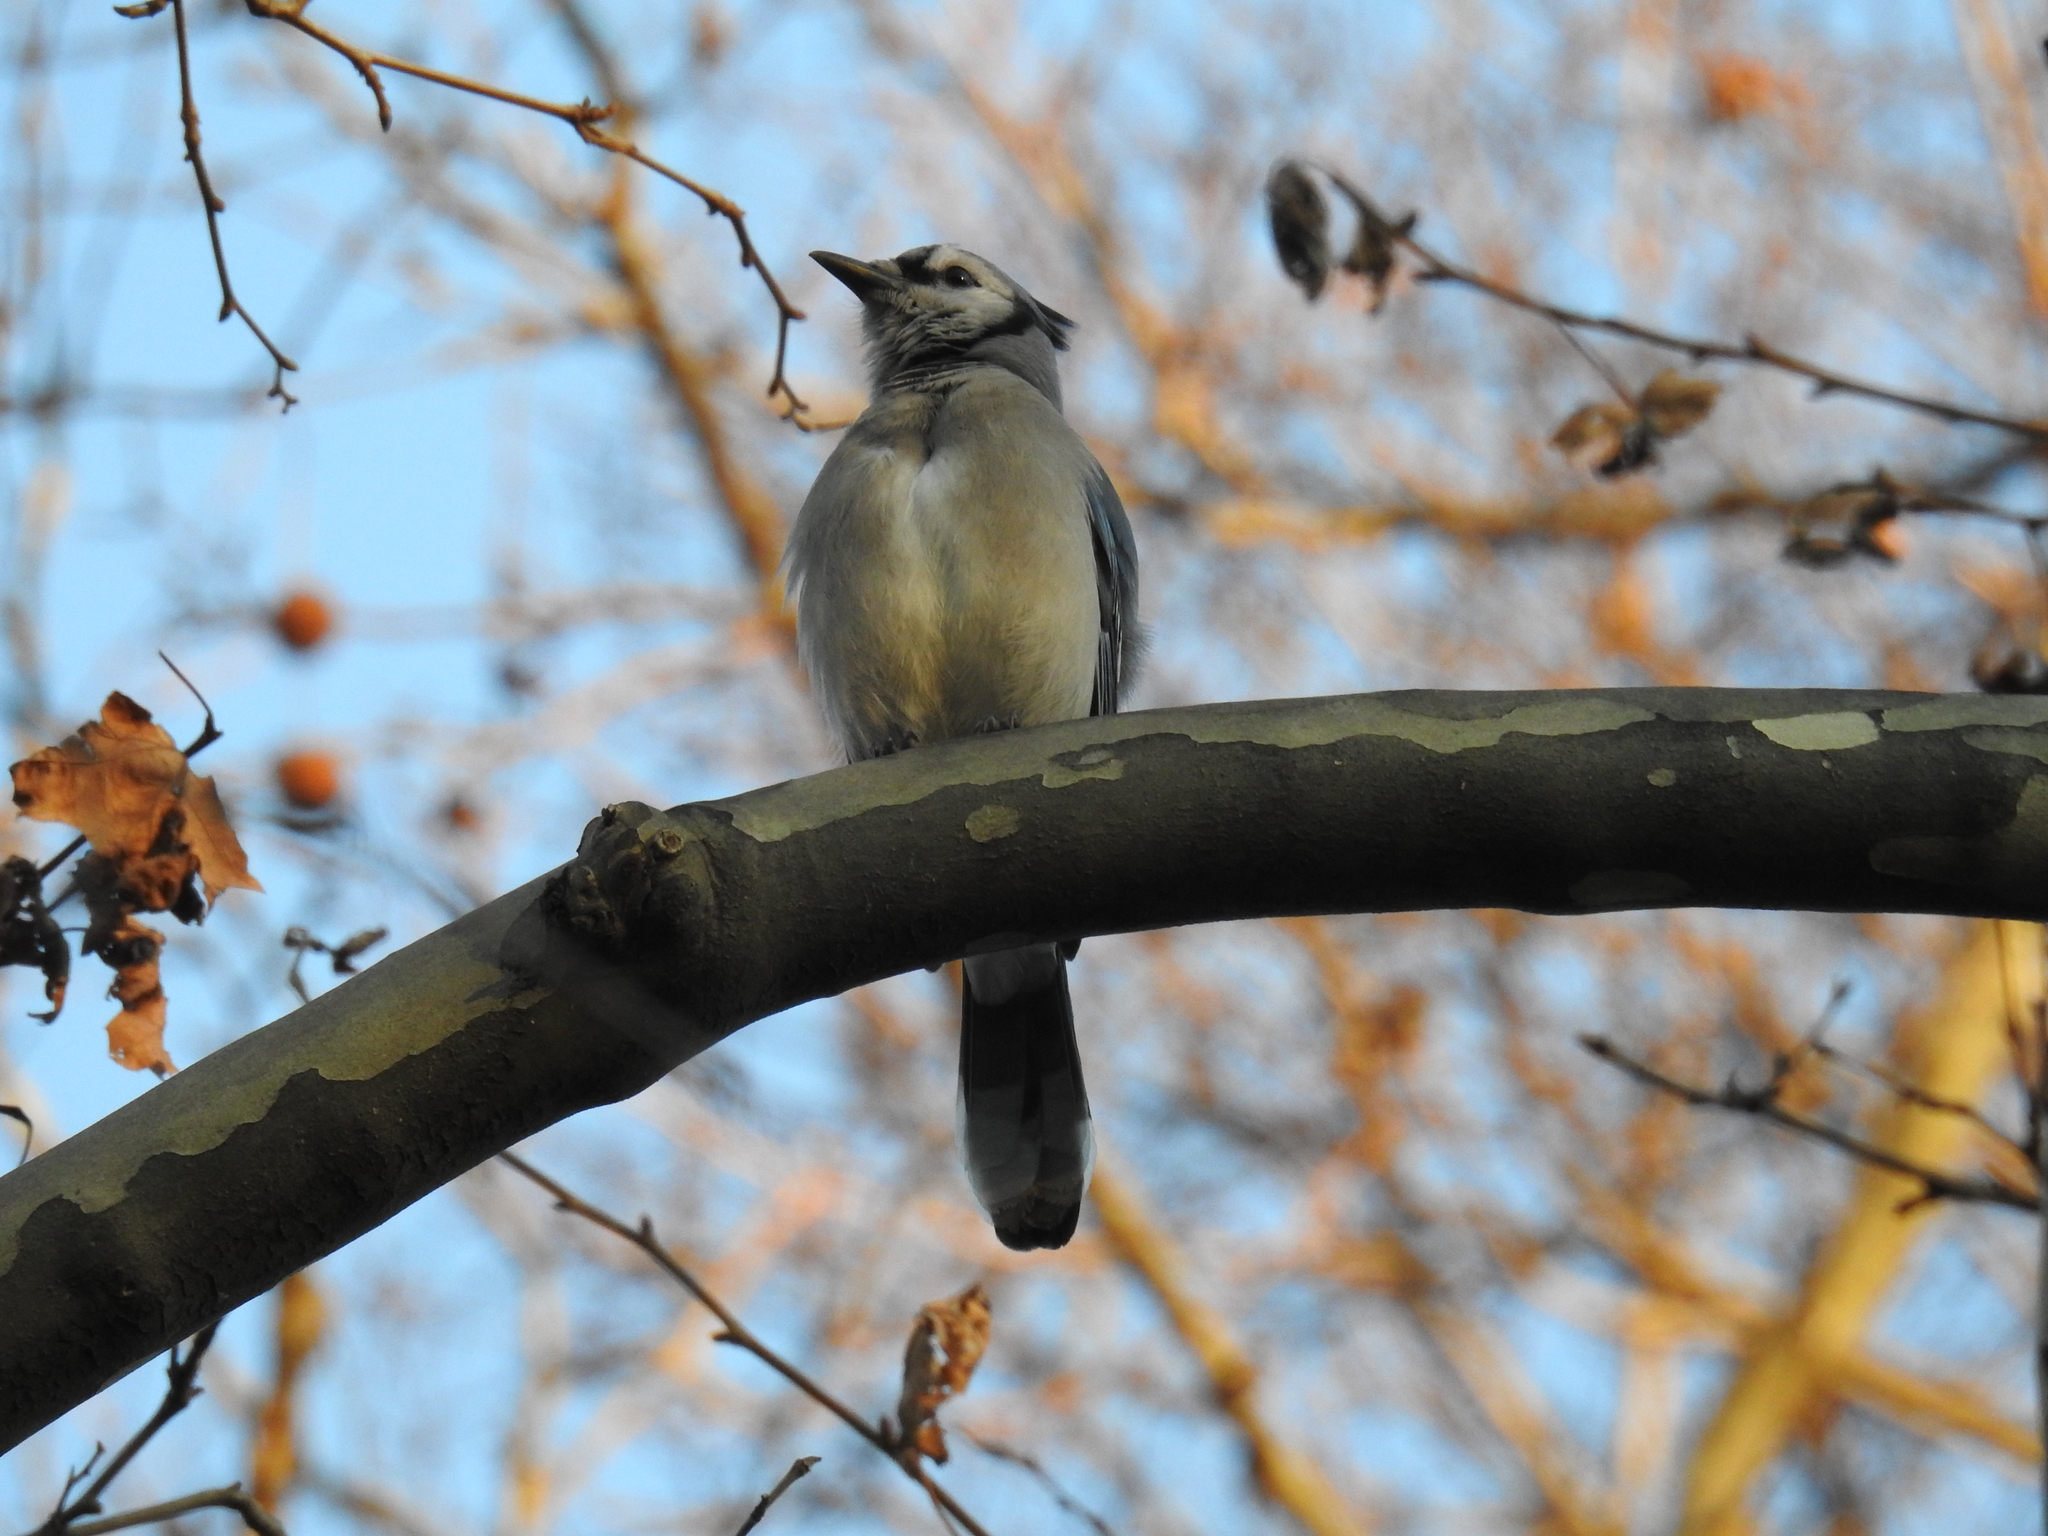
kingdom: Animalia
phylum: Chordata
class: Aves
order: Passeriformes
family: Corvidae
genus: Cyanocitta
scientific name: Cyanocitta cristata
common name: Blue jay
